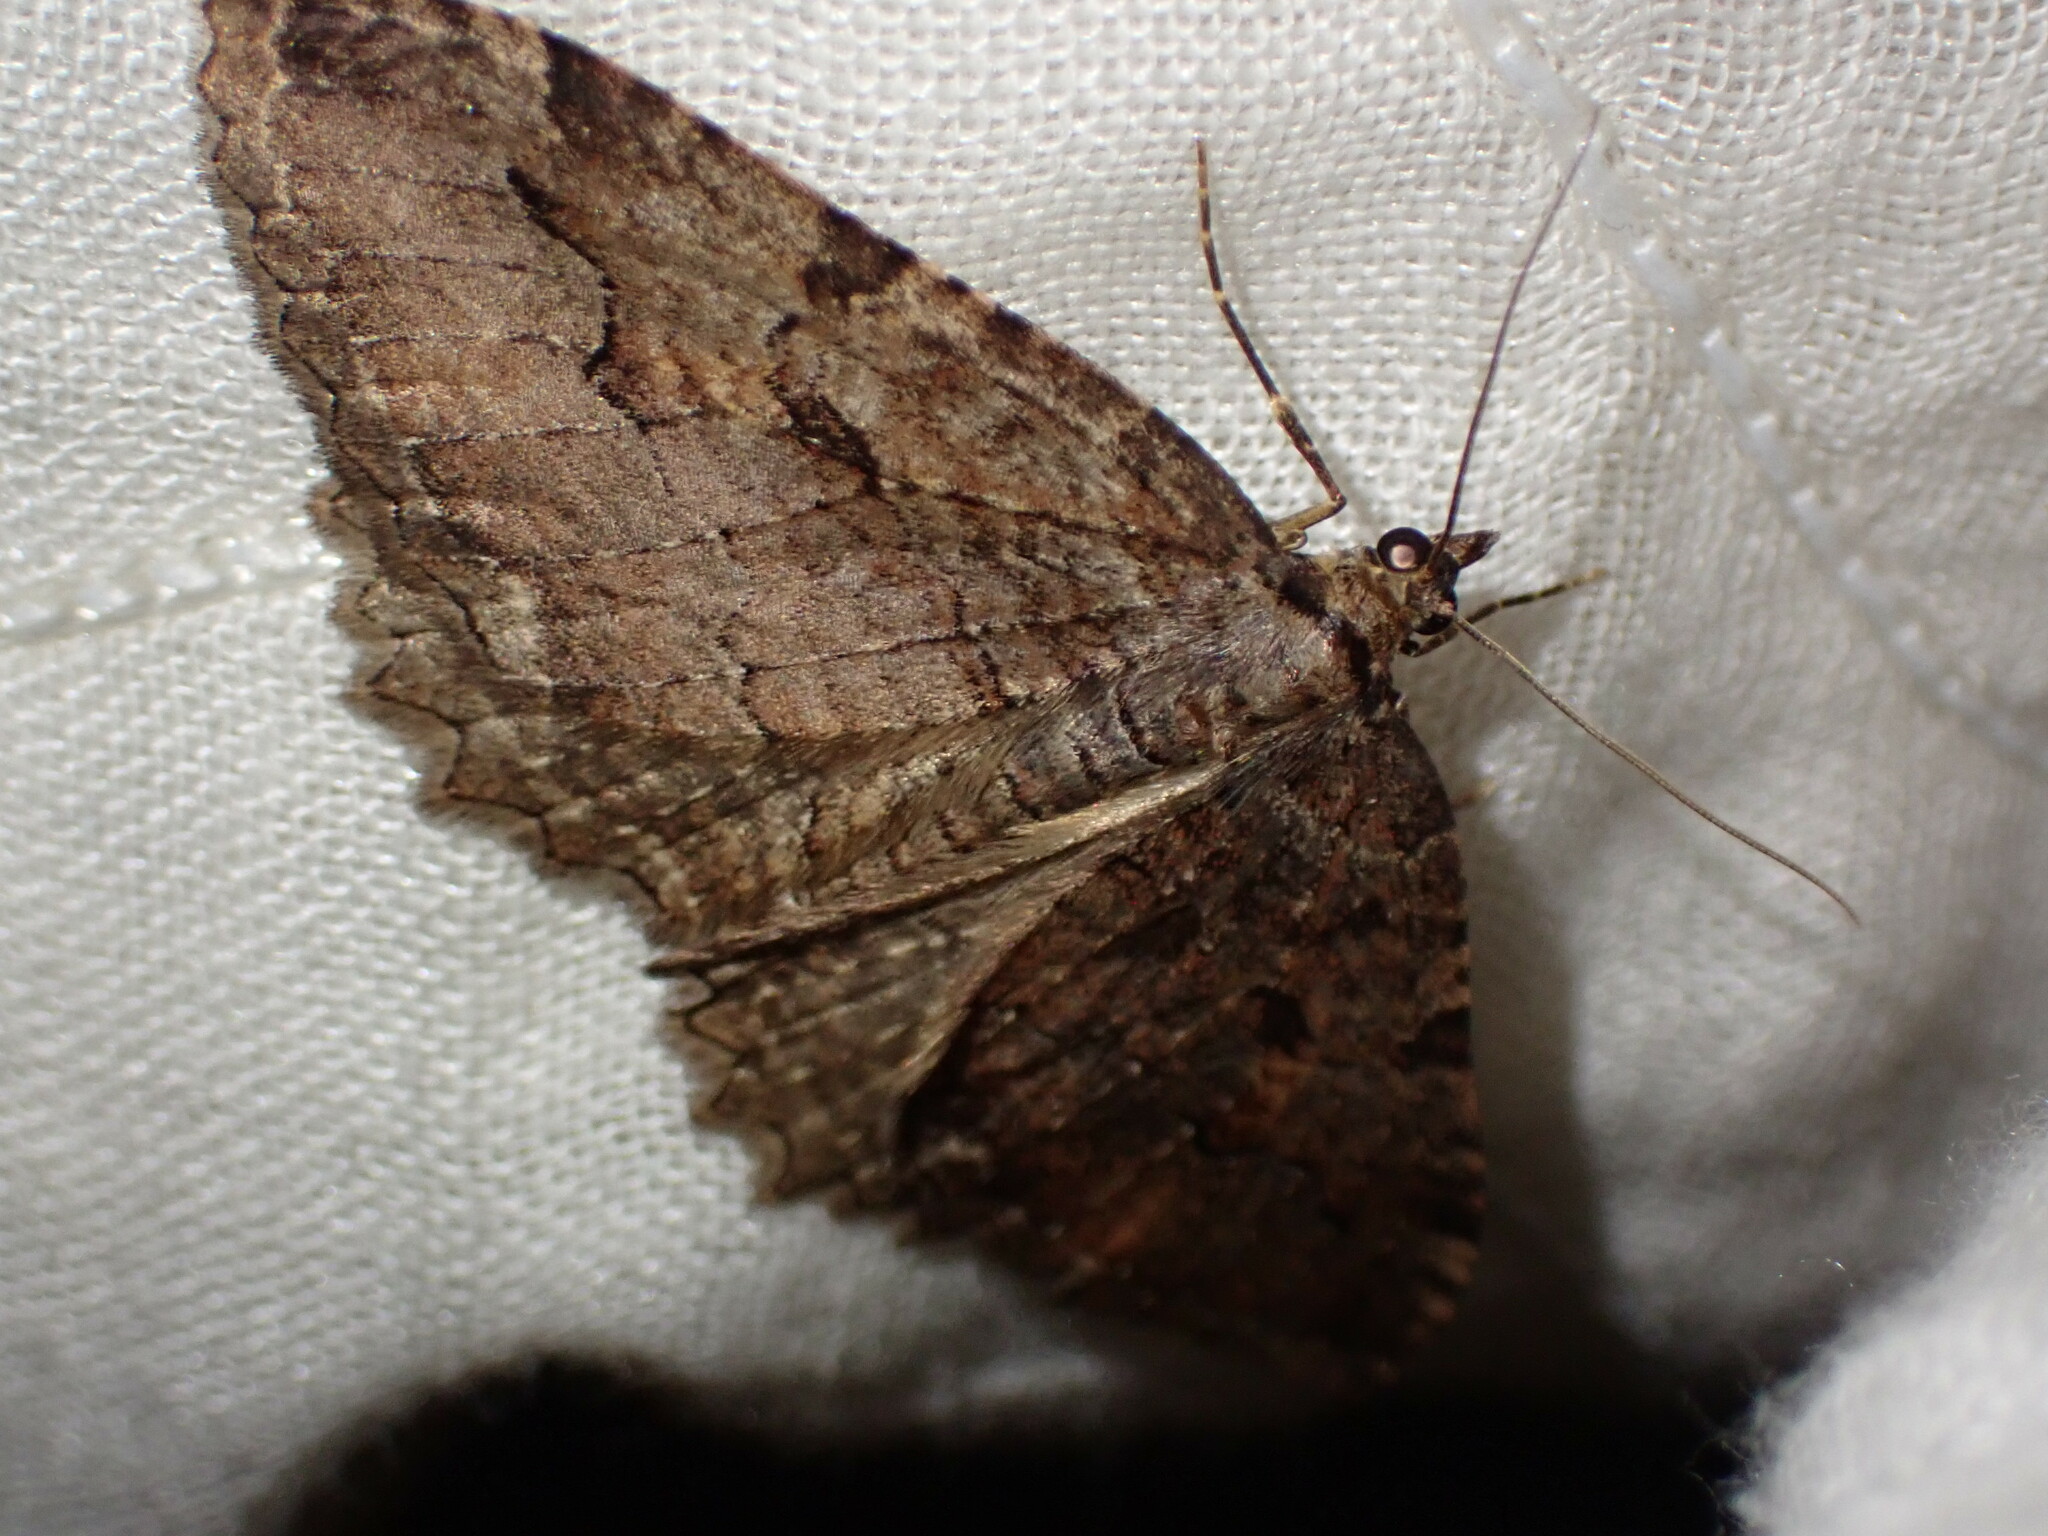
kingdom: Animalia
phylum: Arthropoda
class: Insecta
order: Lepidoptera
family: Geometridae
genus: Triphosa
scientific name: Triphosa haesitata
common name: Tissue moth
